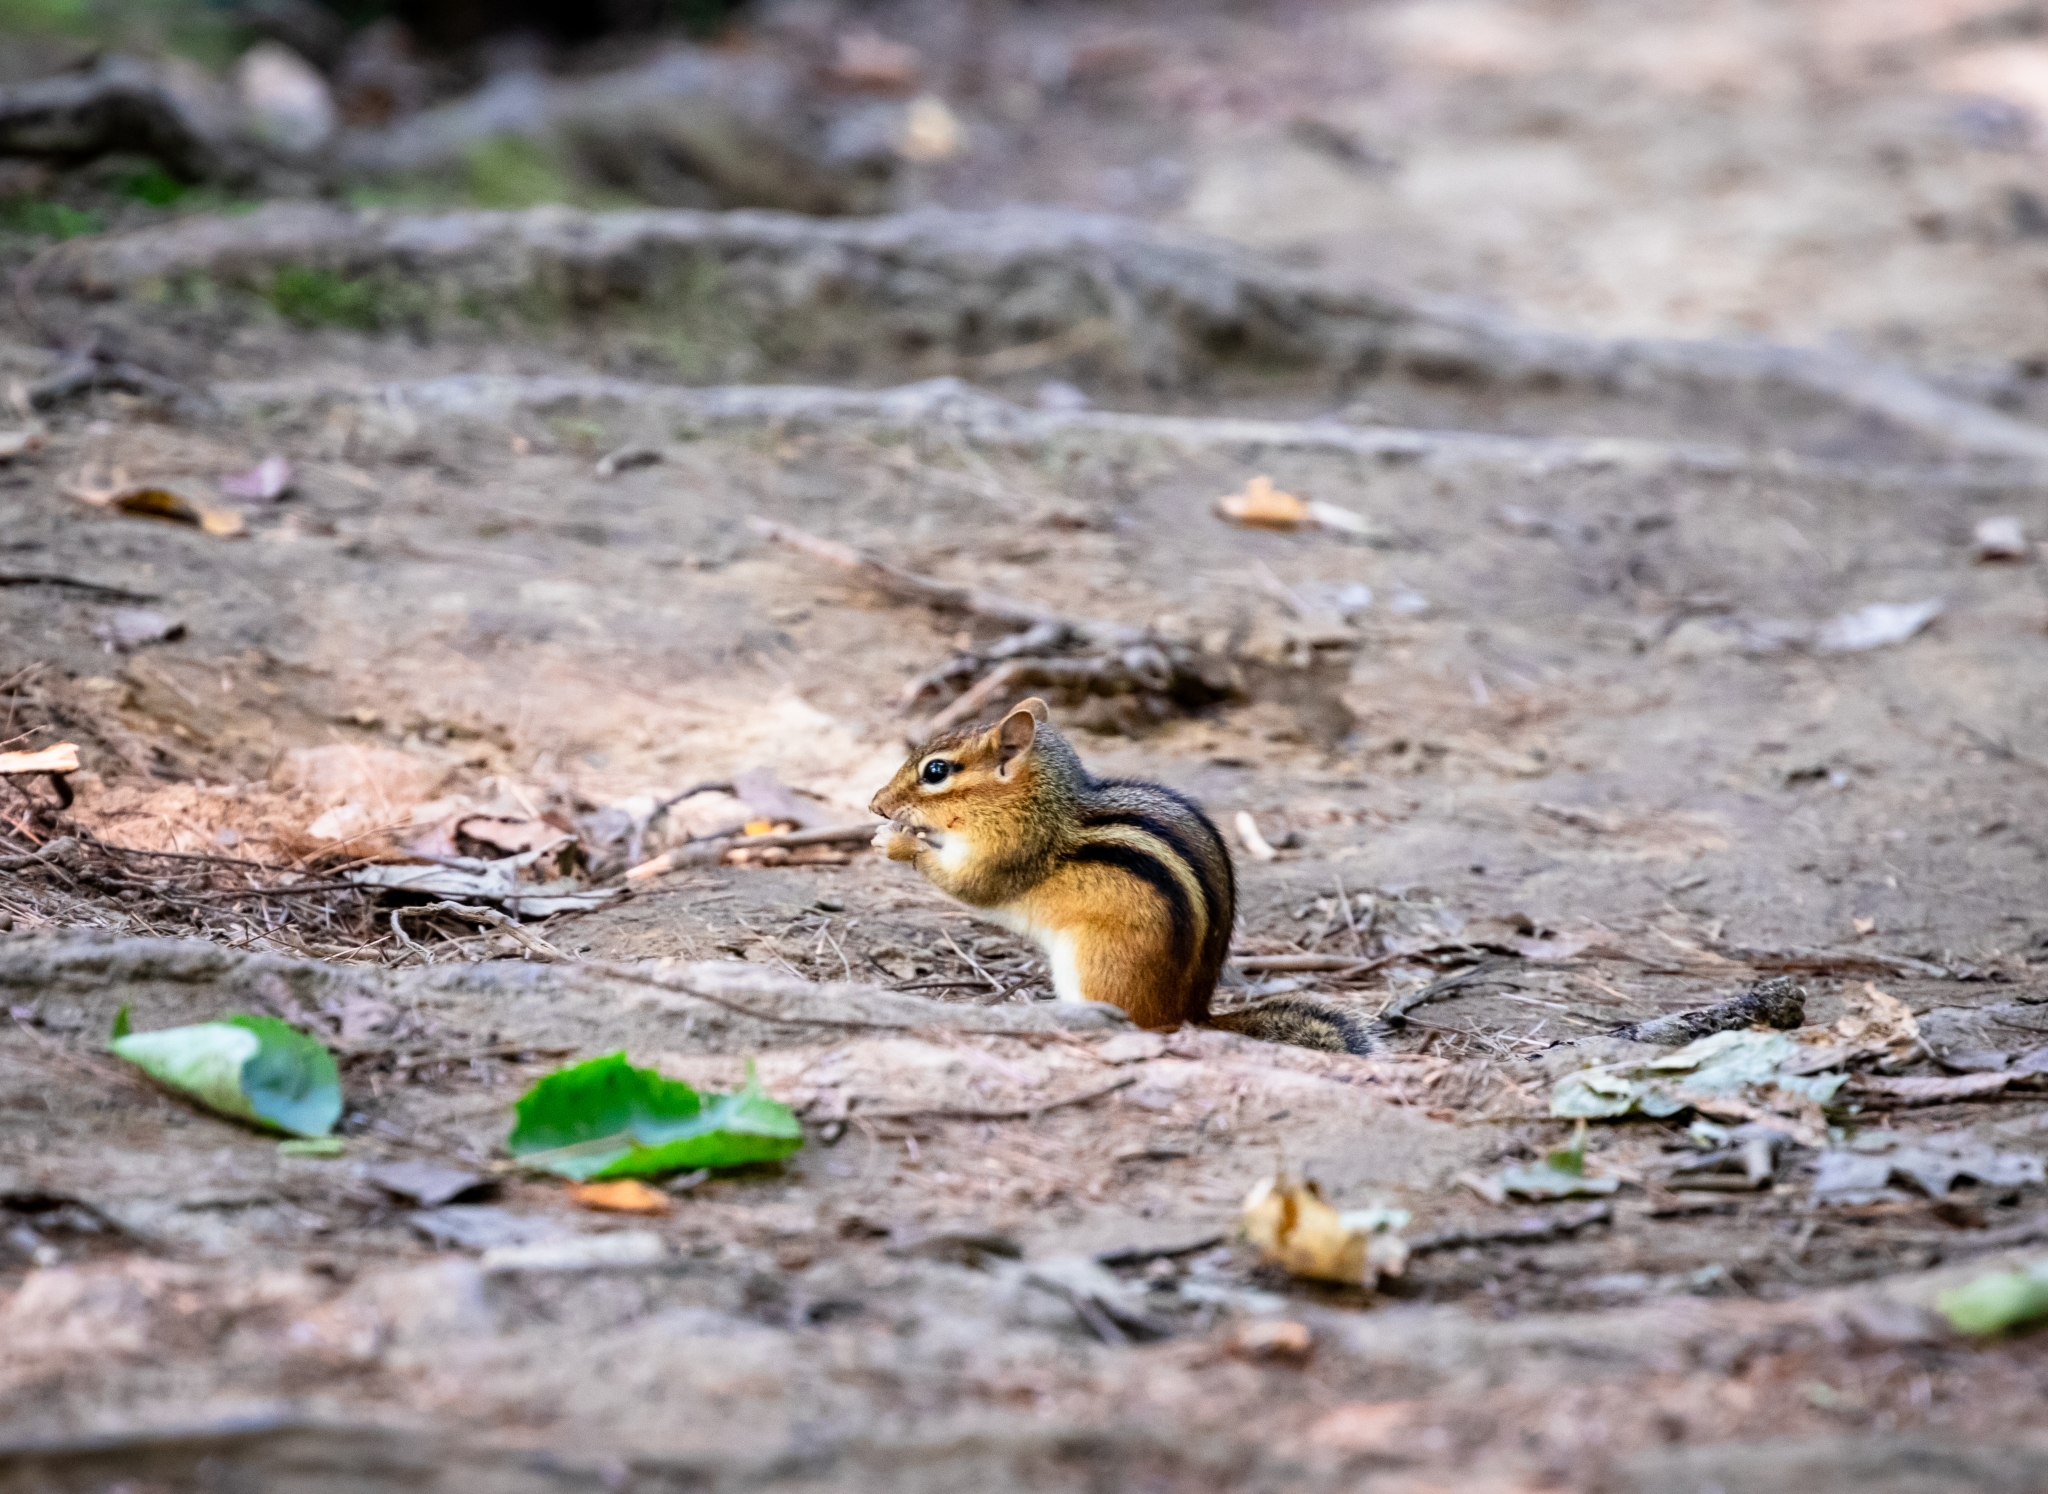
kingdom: Animalia
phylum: Chordata
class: Mammalia
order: Rodentia
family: Sciuridae
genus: Tamias
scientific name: Tamias striatus
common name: Eastern chipmunk
